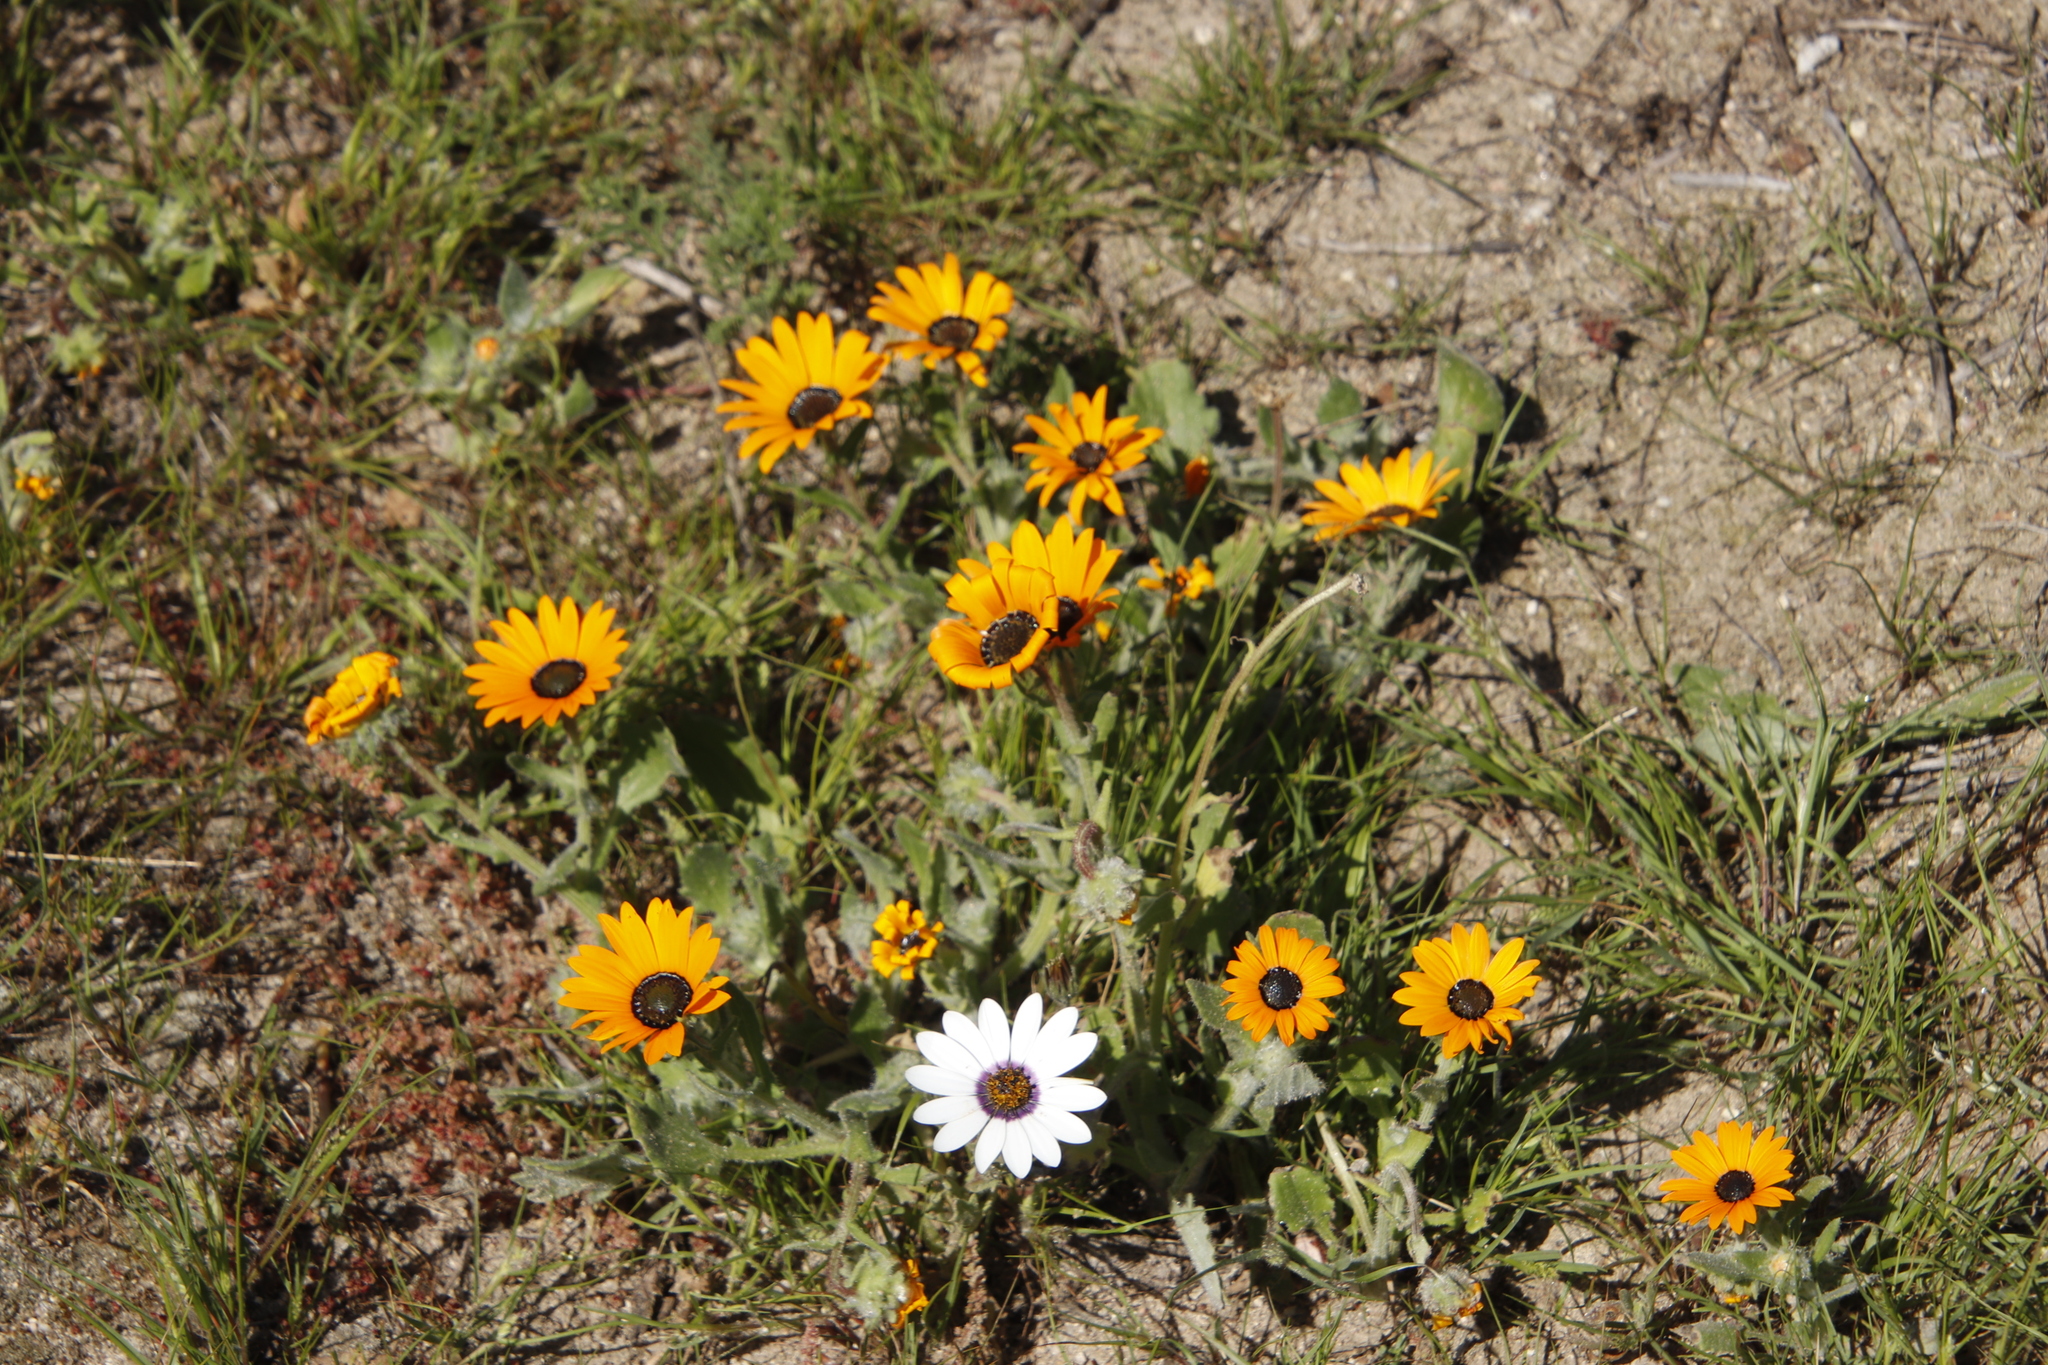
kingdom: Plantae
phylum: Tracheophyta
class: Magnoliopsida
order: Asterales
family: Asteraceae
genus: Arctotis
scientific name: Arctotis hirsuta
